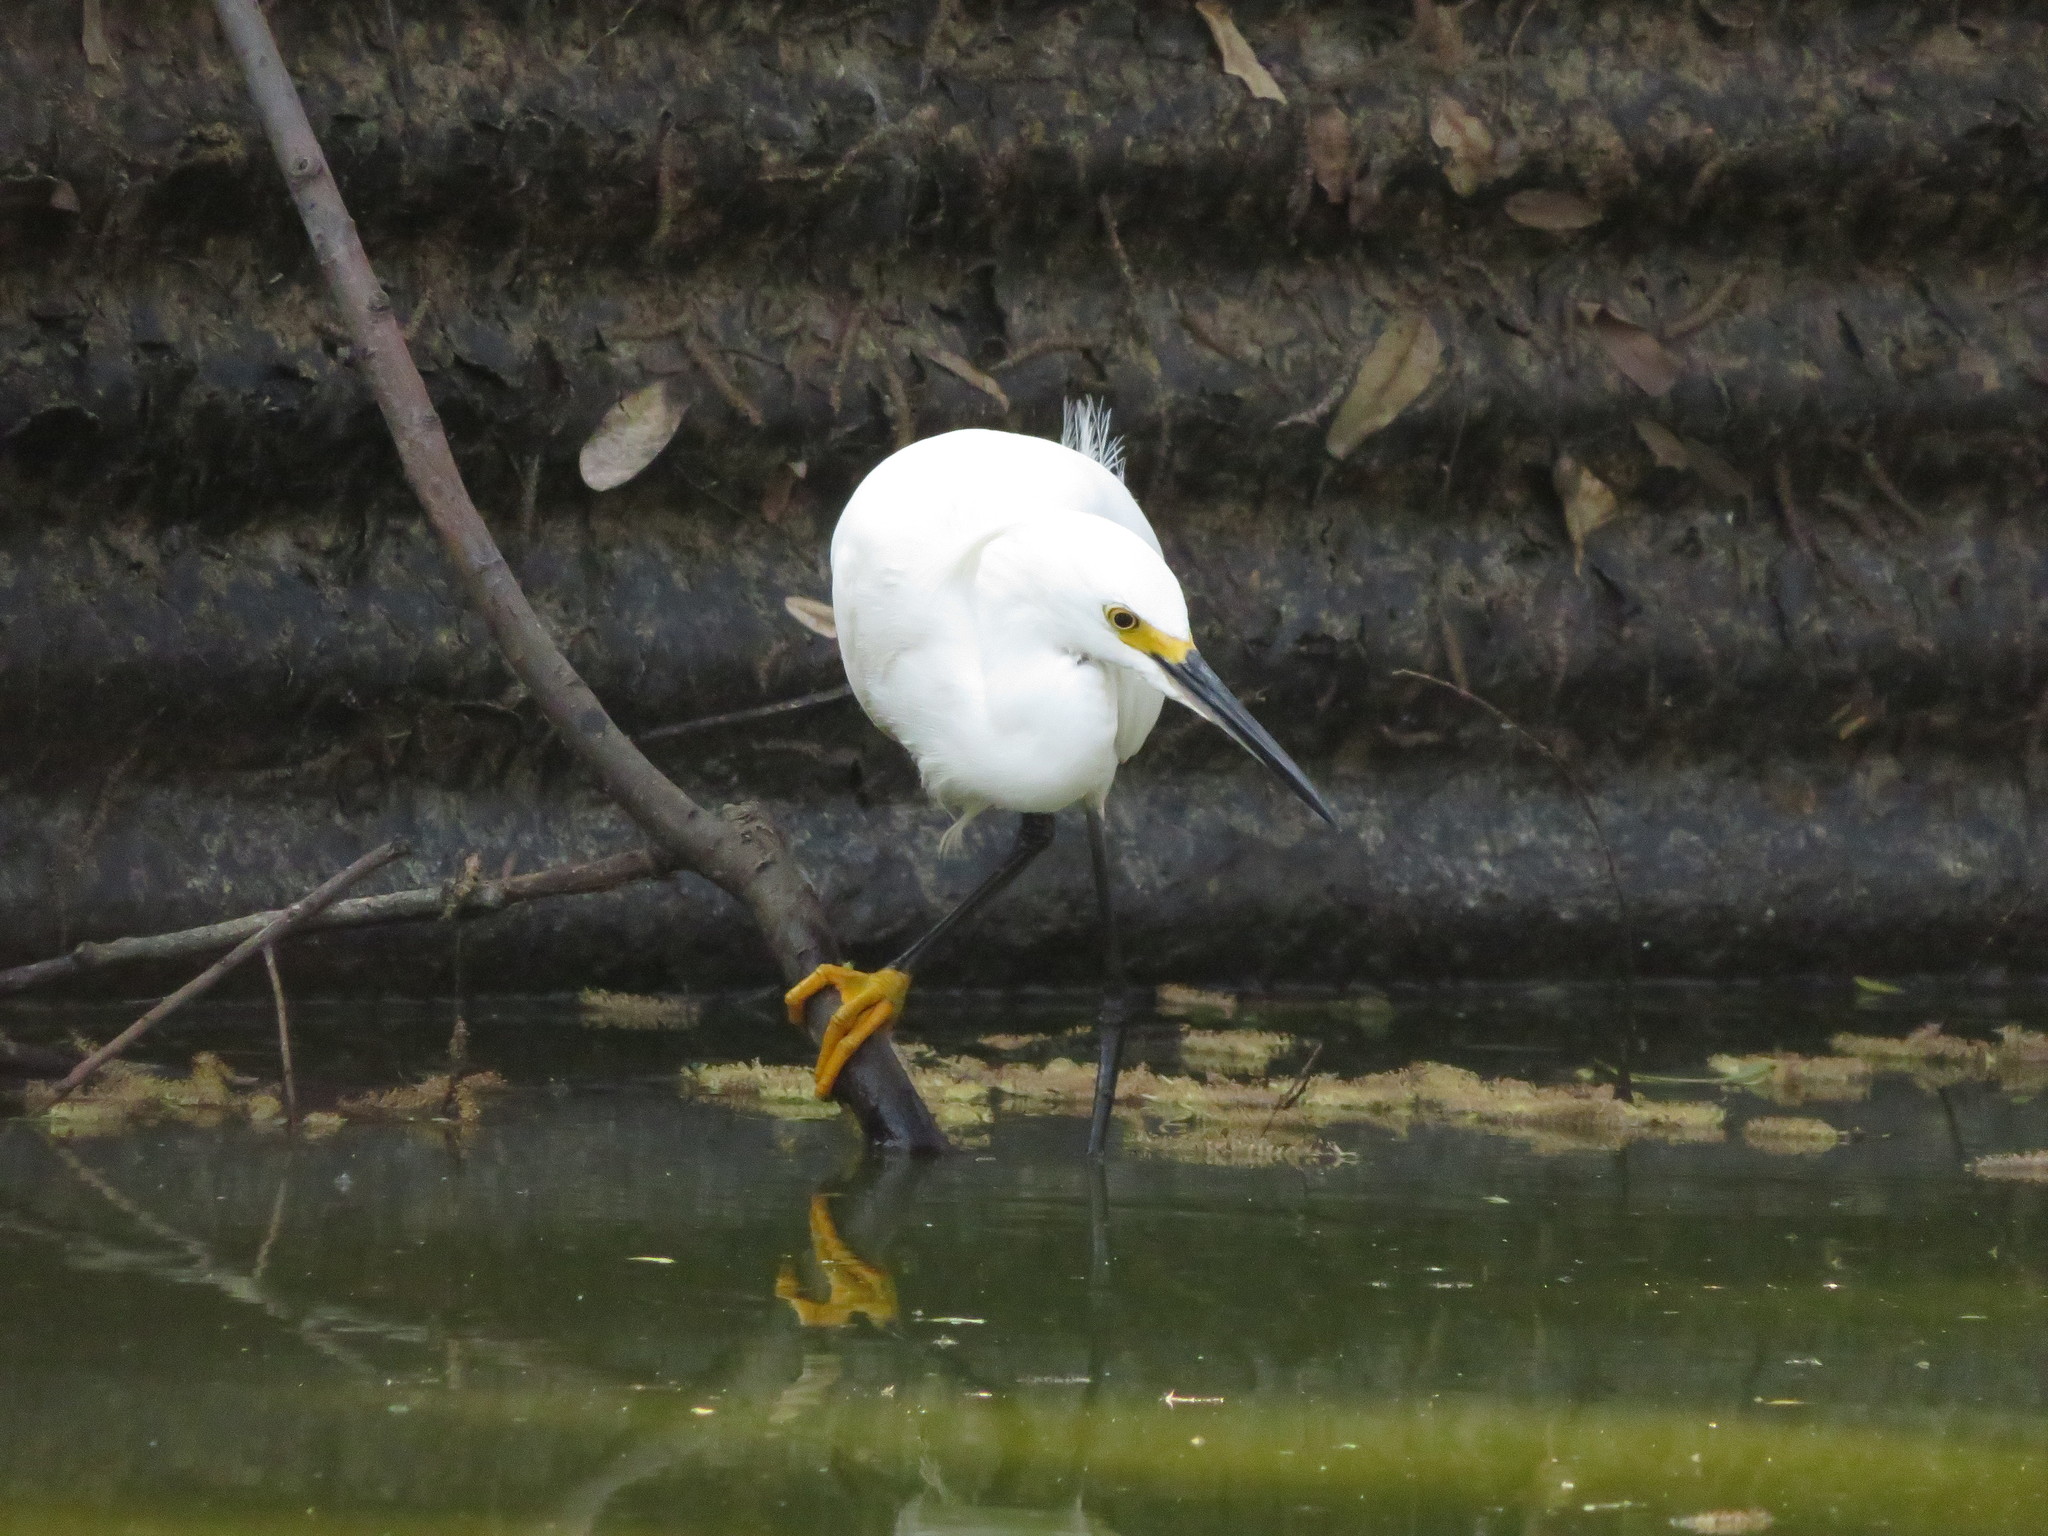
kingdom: Animalia
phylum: Chordata
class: Aves
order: Pelecaniformes
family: Ardeidae
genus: Egretta
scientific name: Egretta thula
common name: Snowy egret
